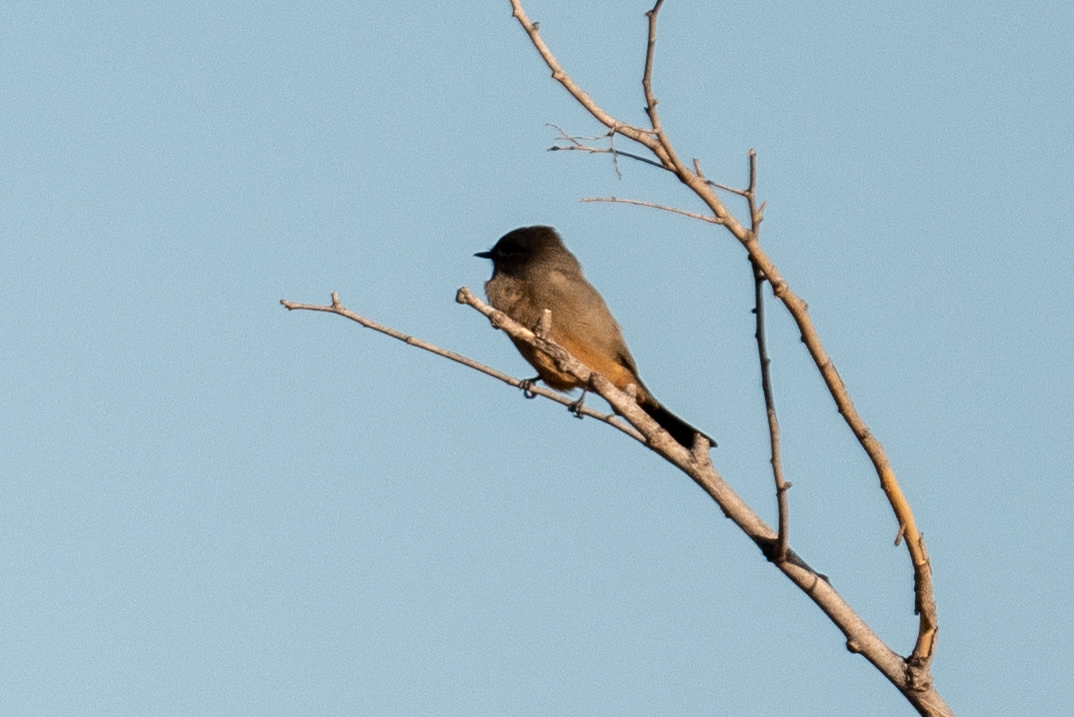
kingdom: Animalia
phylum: Chordata
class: Aves
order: Passeriformes
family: Tyrannidae
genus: Sayornis
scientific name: Sayornis saya
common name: Say's phoebe
